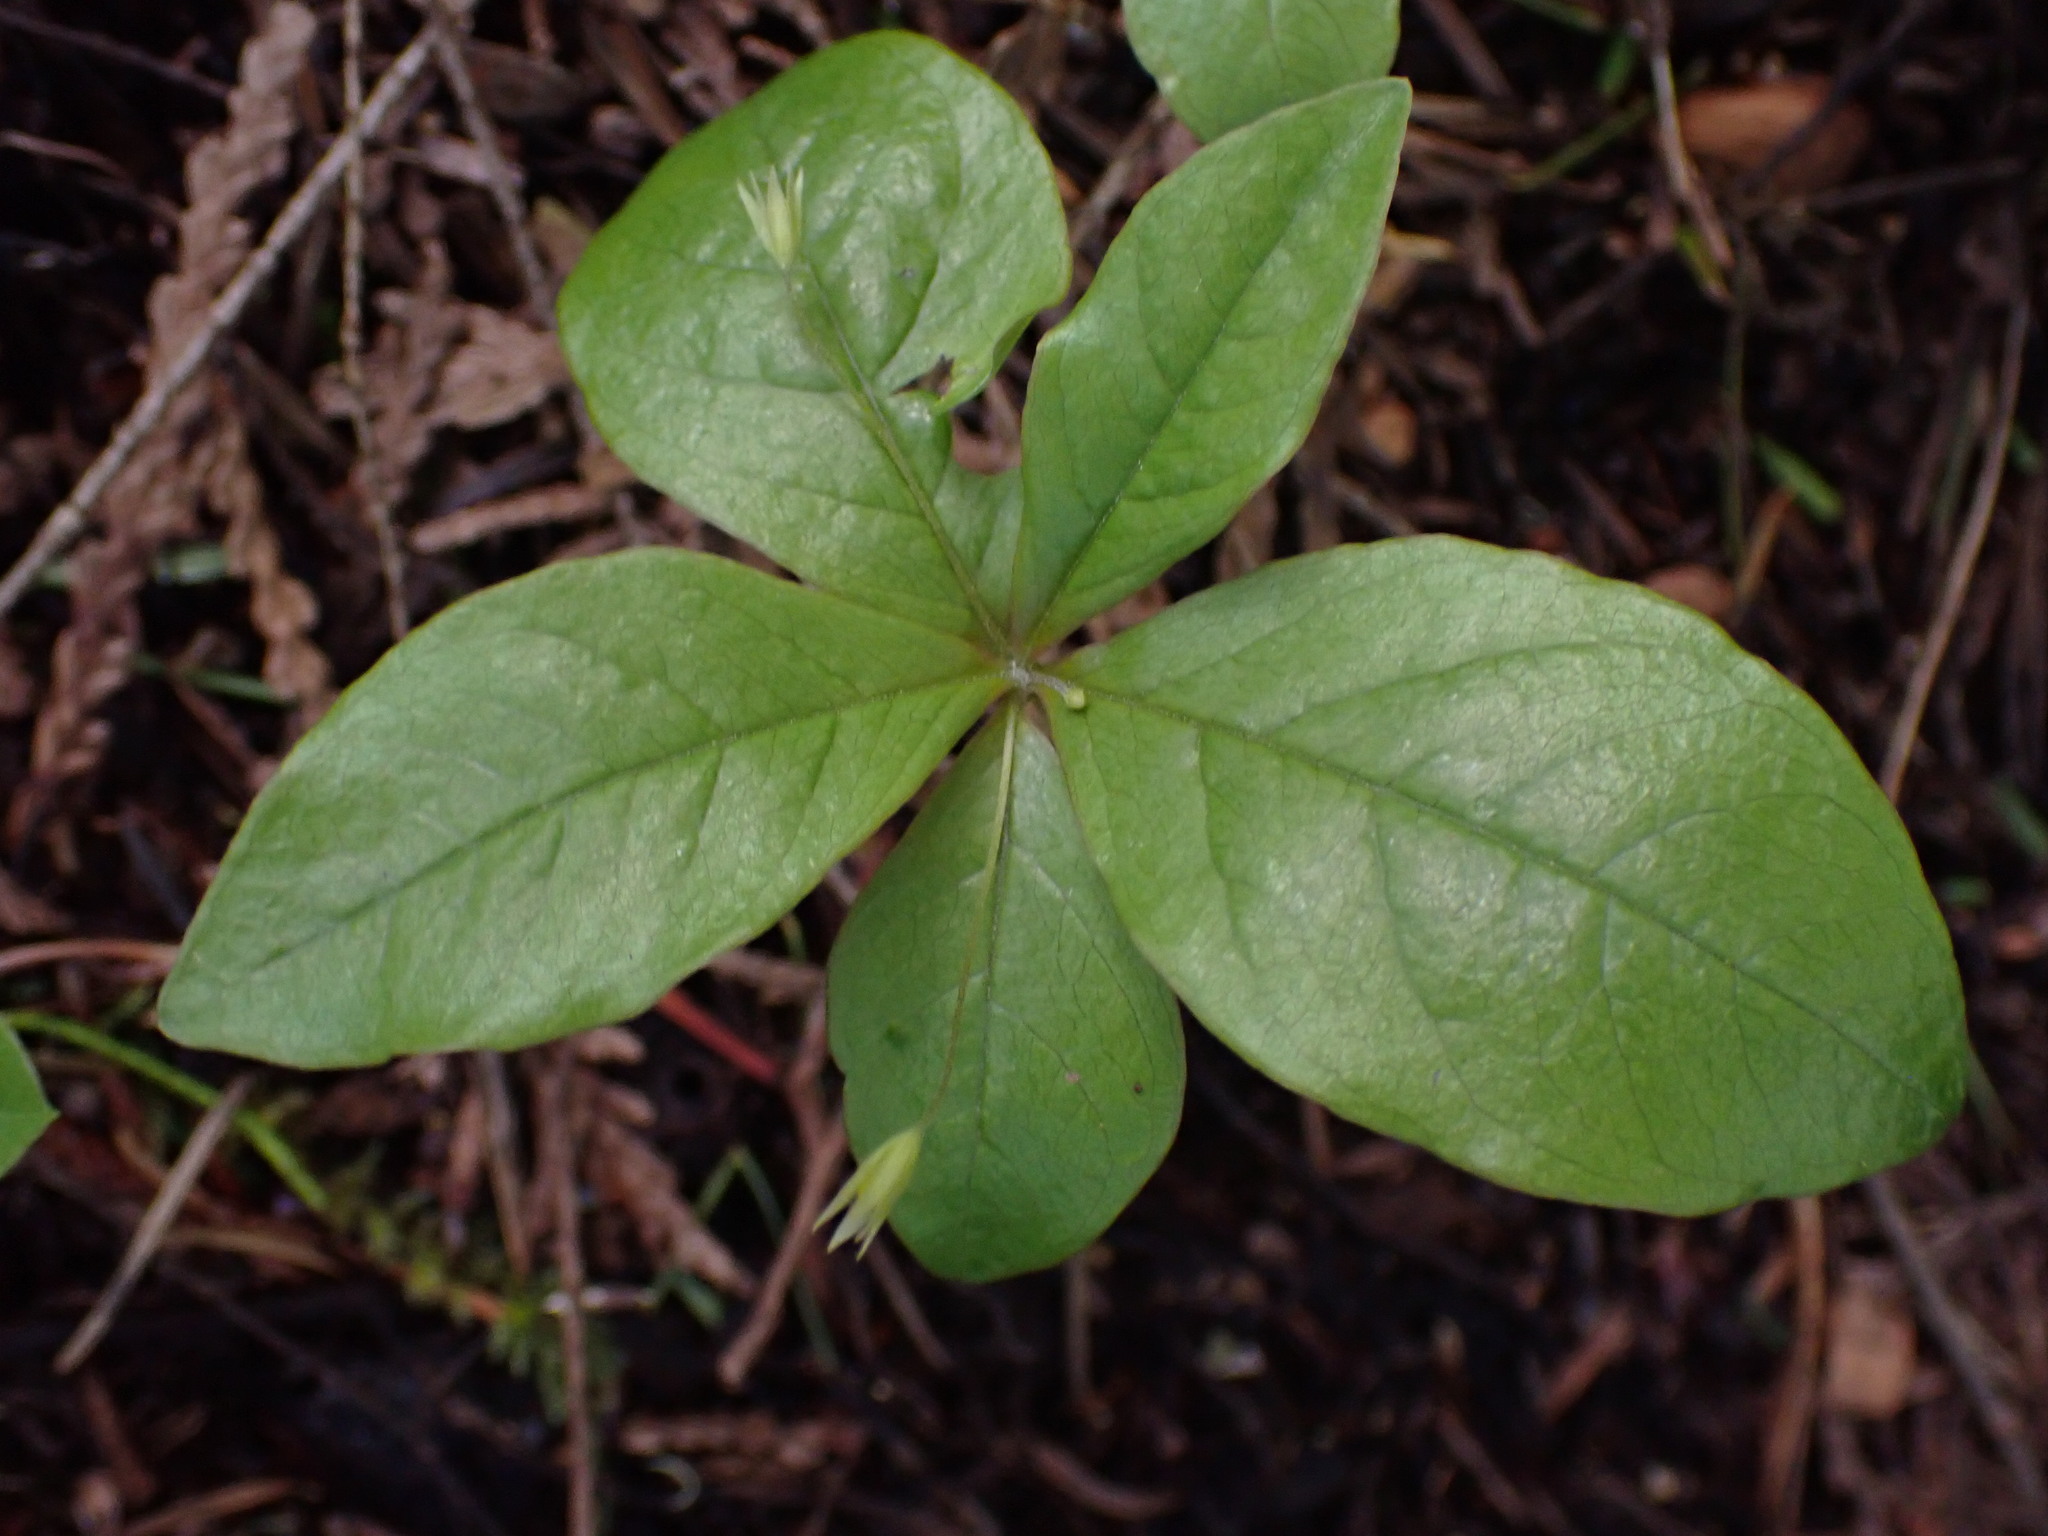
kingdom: Plantae
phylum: Tracheophyta
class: Magnoliopsida
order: Ericales
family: Primulaceae
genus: Lysimachia
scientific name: Lysimachia latifolia
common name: Pacific starflower
